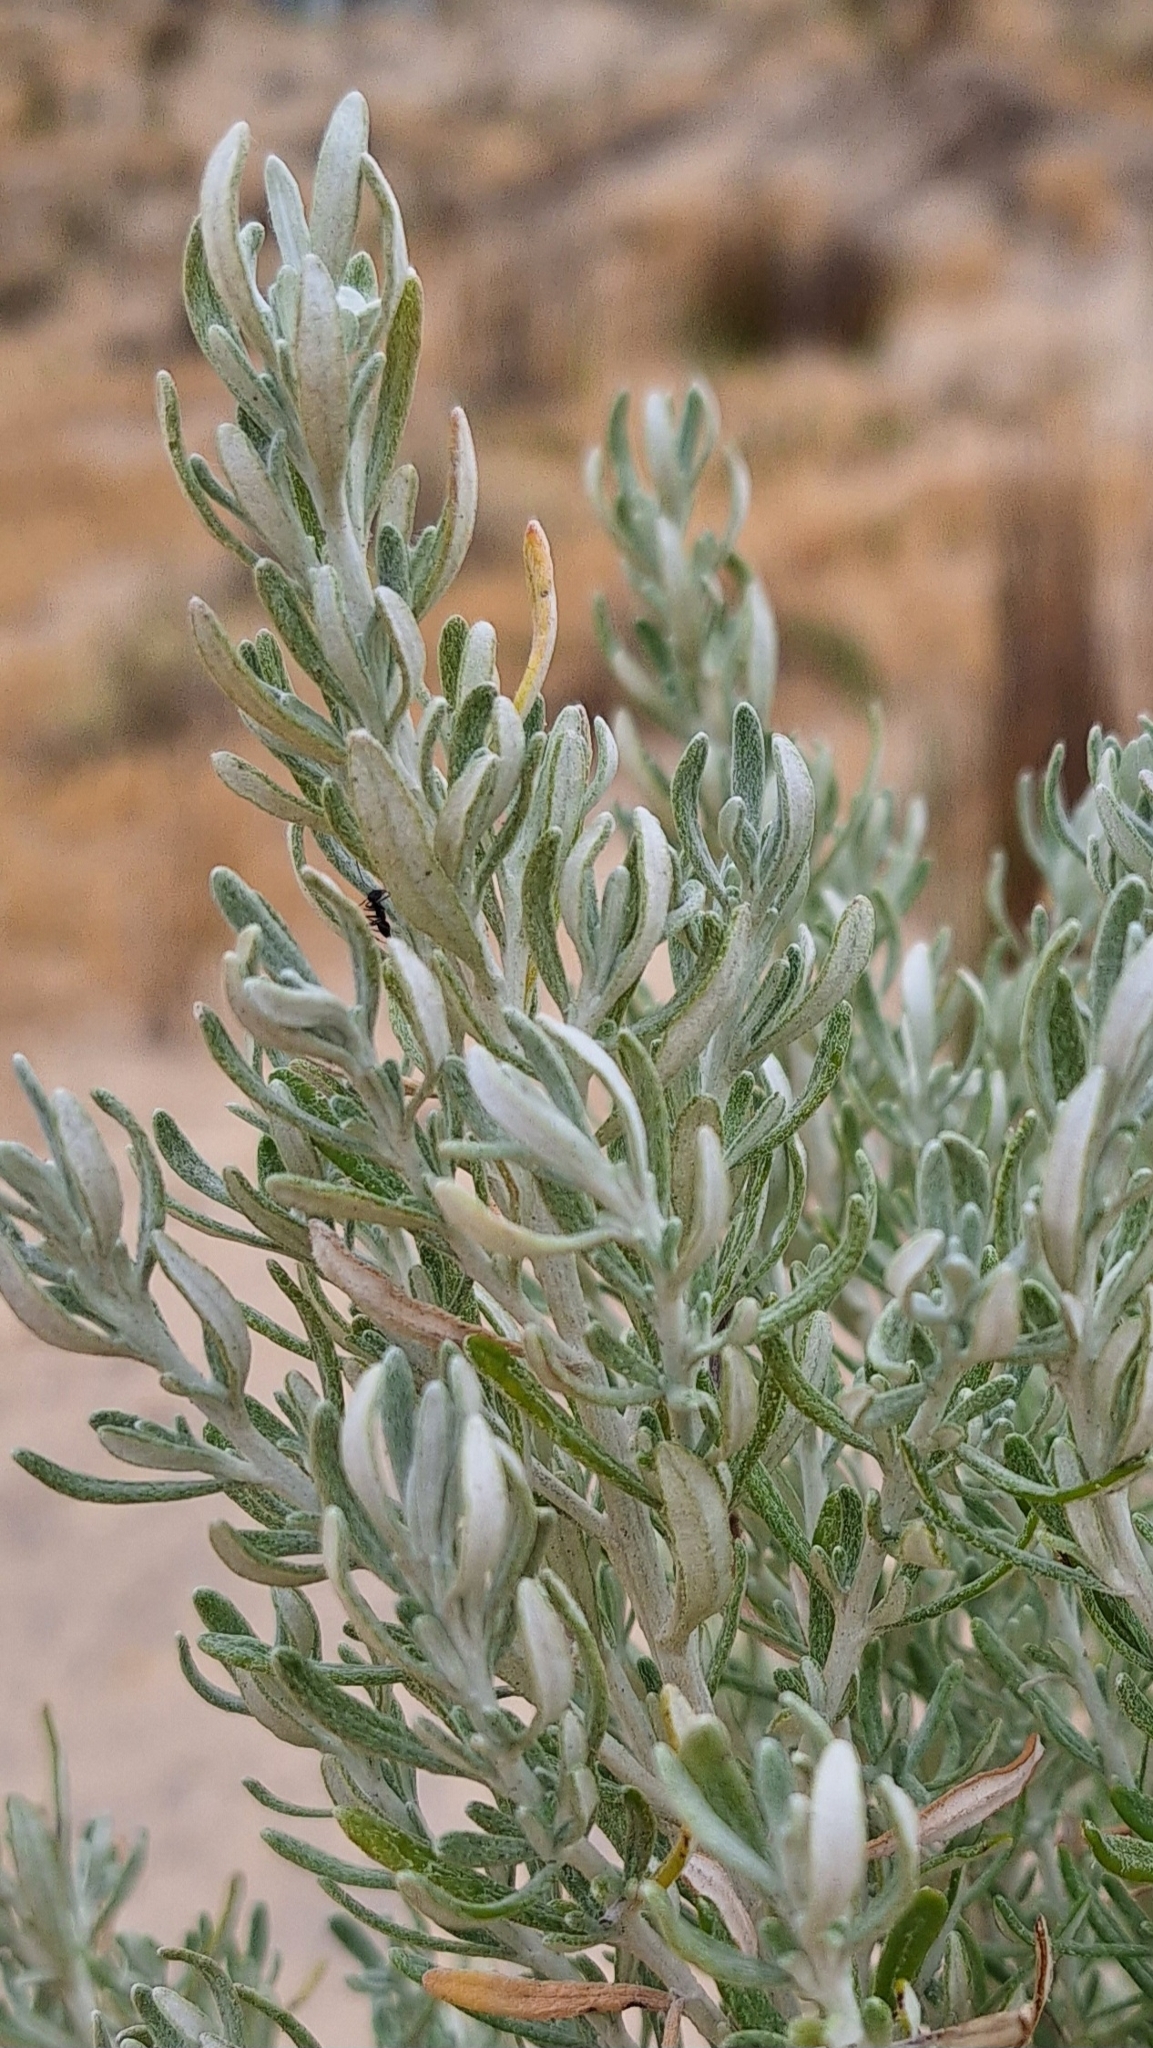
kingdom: Plantae
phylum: Tracheophyta
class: Magnoliopsida
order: Asterales
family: Asteraceae
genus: Olearia
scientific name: Olearia axillaris
